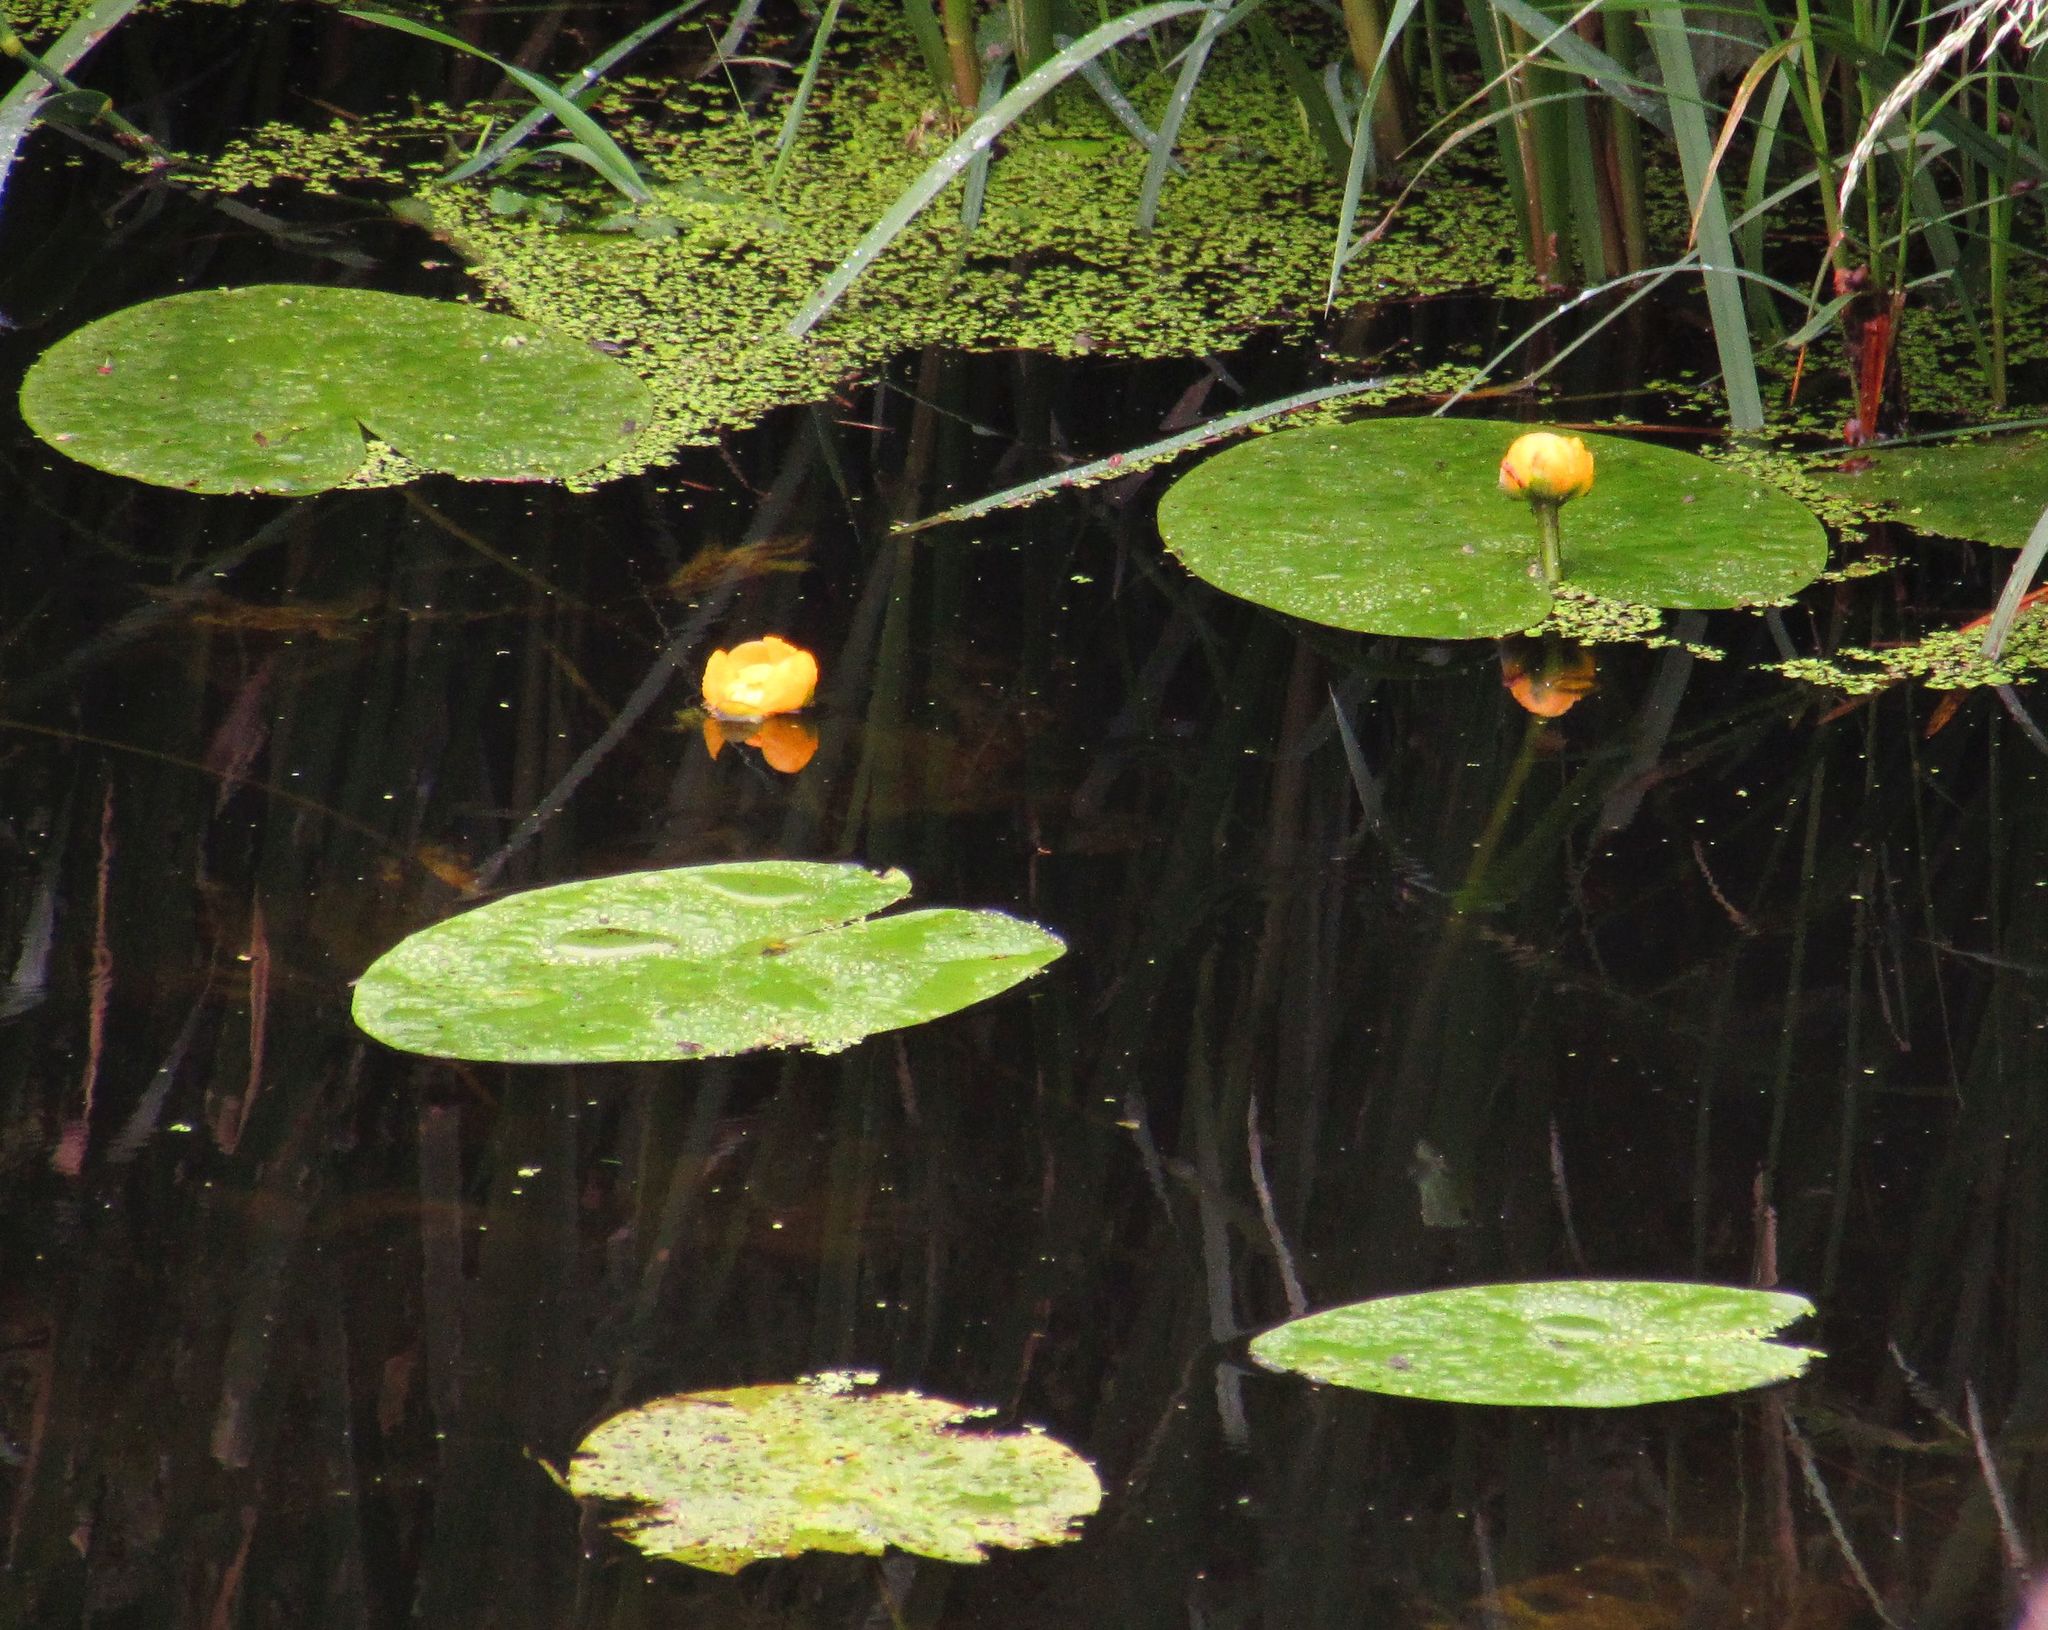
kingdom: Plantae
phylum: Tracheophyta
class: Magnoliopsida
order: Nymphaeales
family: Nymphaeaceae
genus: Nuphar
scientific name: Nuphar lutea
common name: Yellow water-lily
